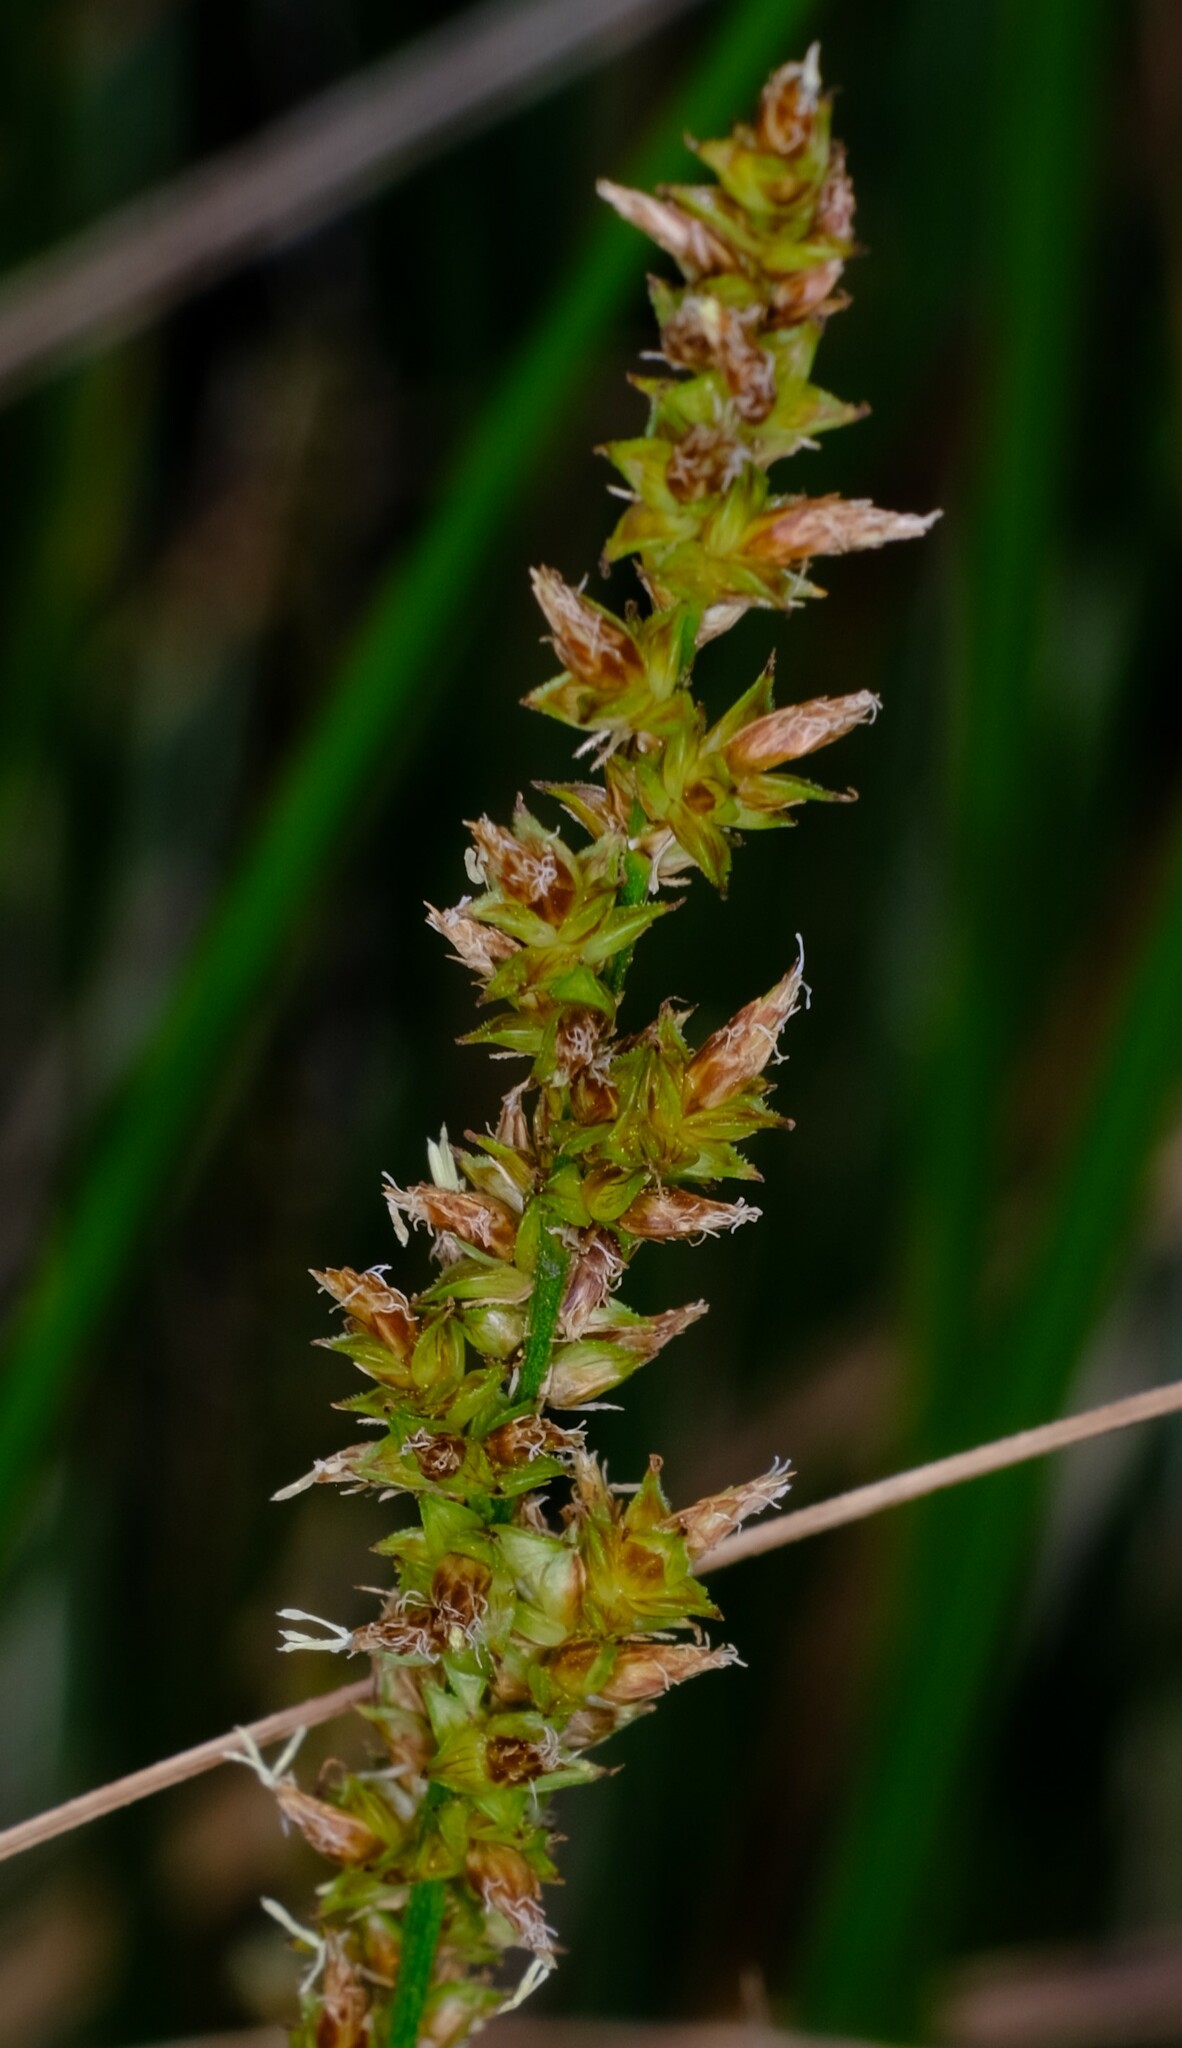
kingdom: Plantae
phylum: Tracheophyta
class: Liliopsida
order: Poales
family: Cyperaceae
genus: Carex
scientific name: Carex appressa
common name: Tussock sedge
